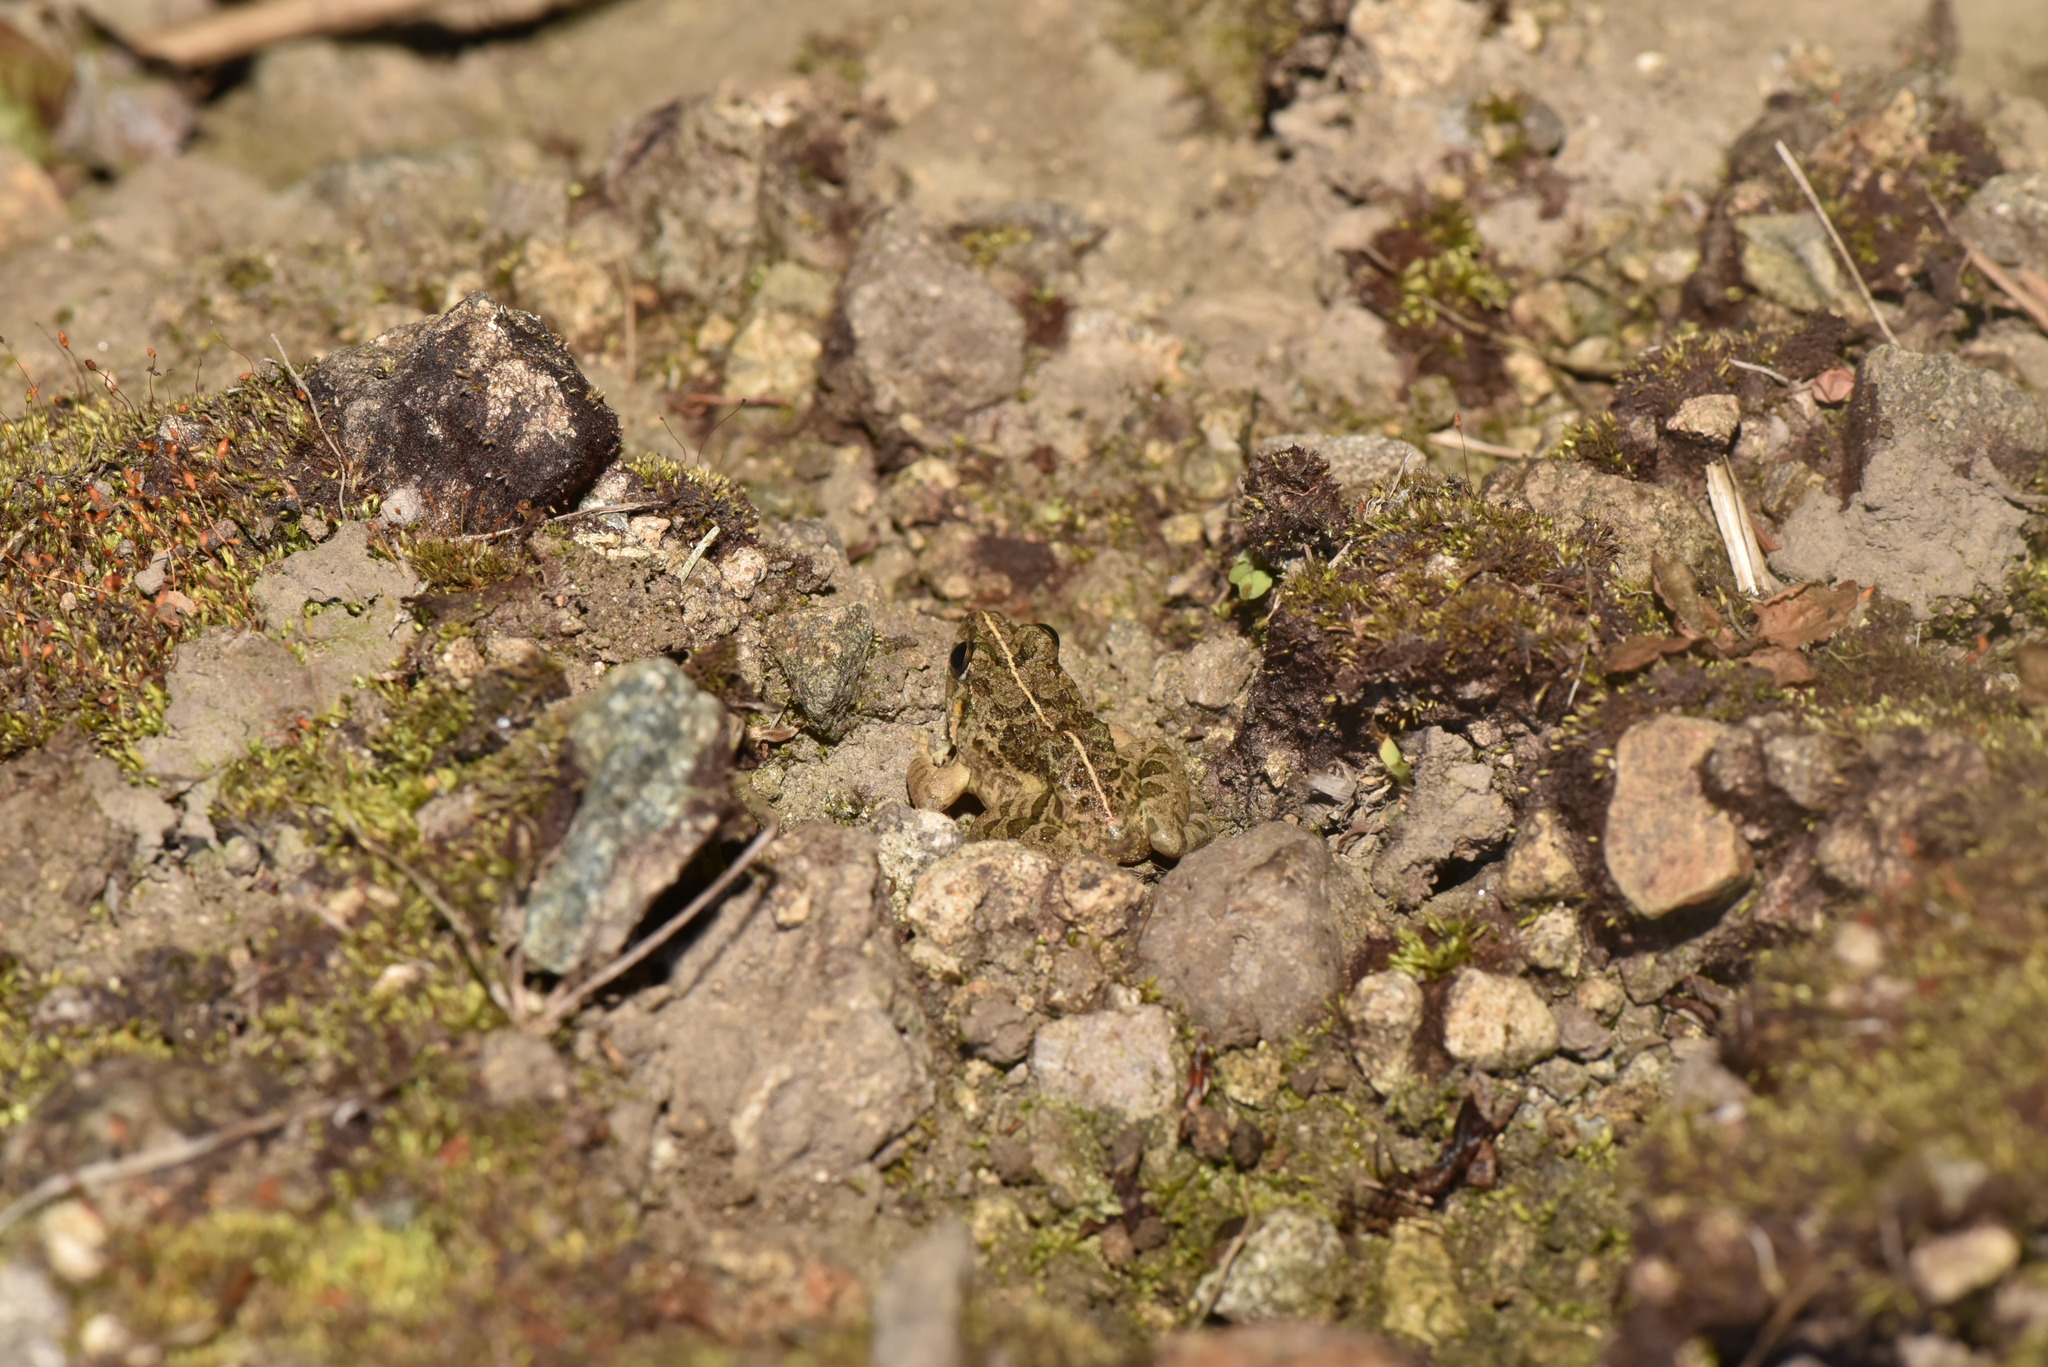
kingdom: Animalia
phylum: Chordata
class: Amphibia
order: Anura
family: Dicroglossidae
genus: Fejervarya
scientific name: Fejervarya limnocharis
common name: Asian grass frog/common pond frog/field frog/grass frog/indian rice frog
